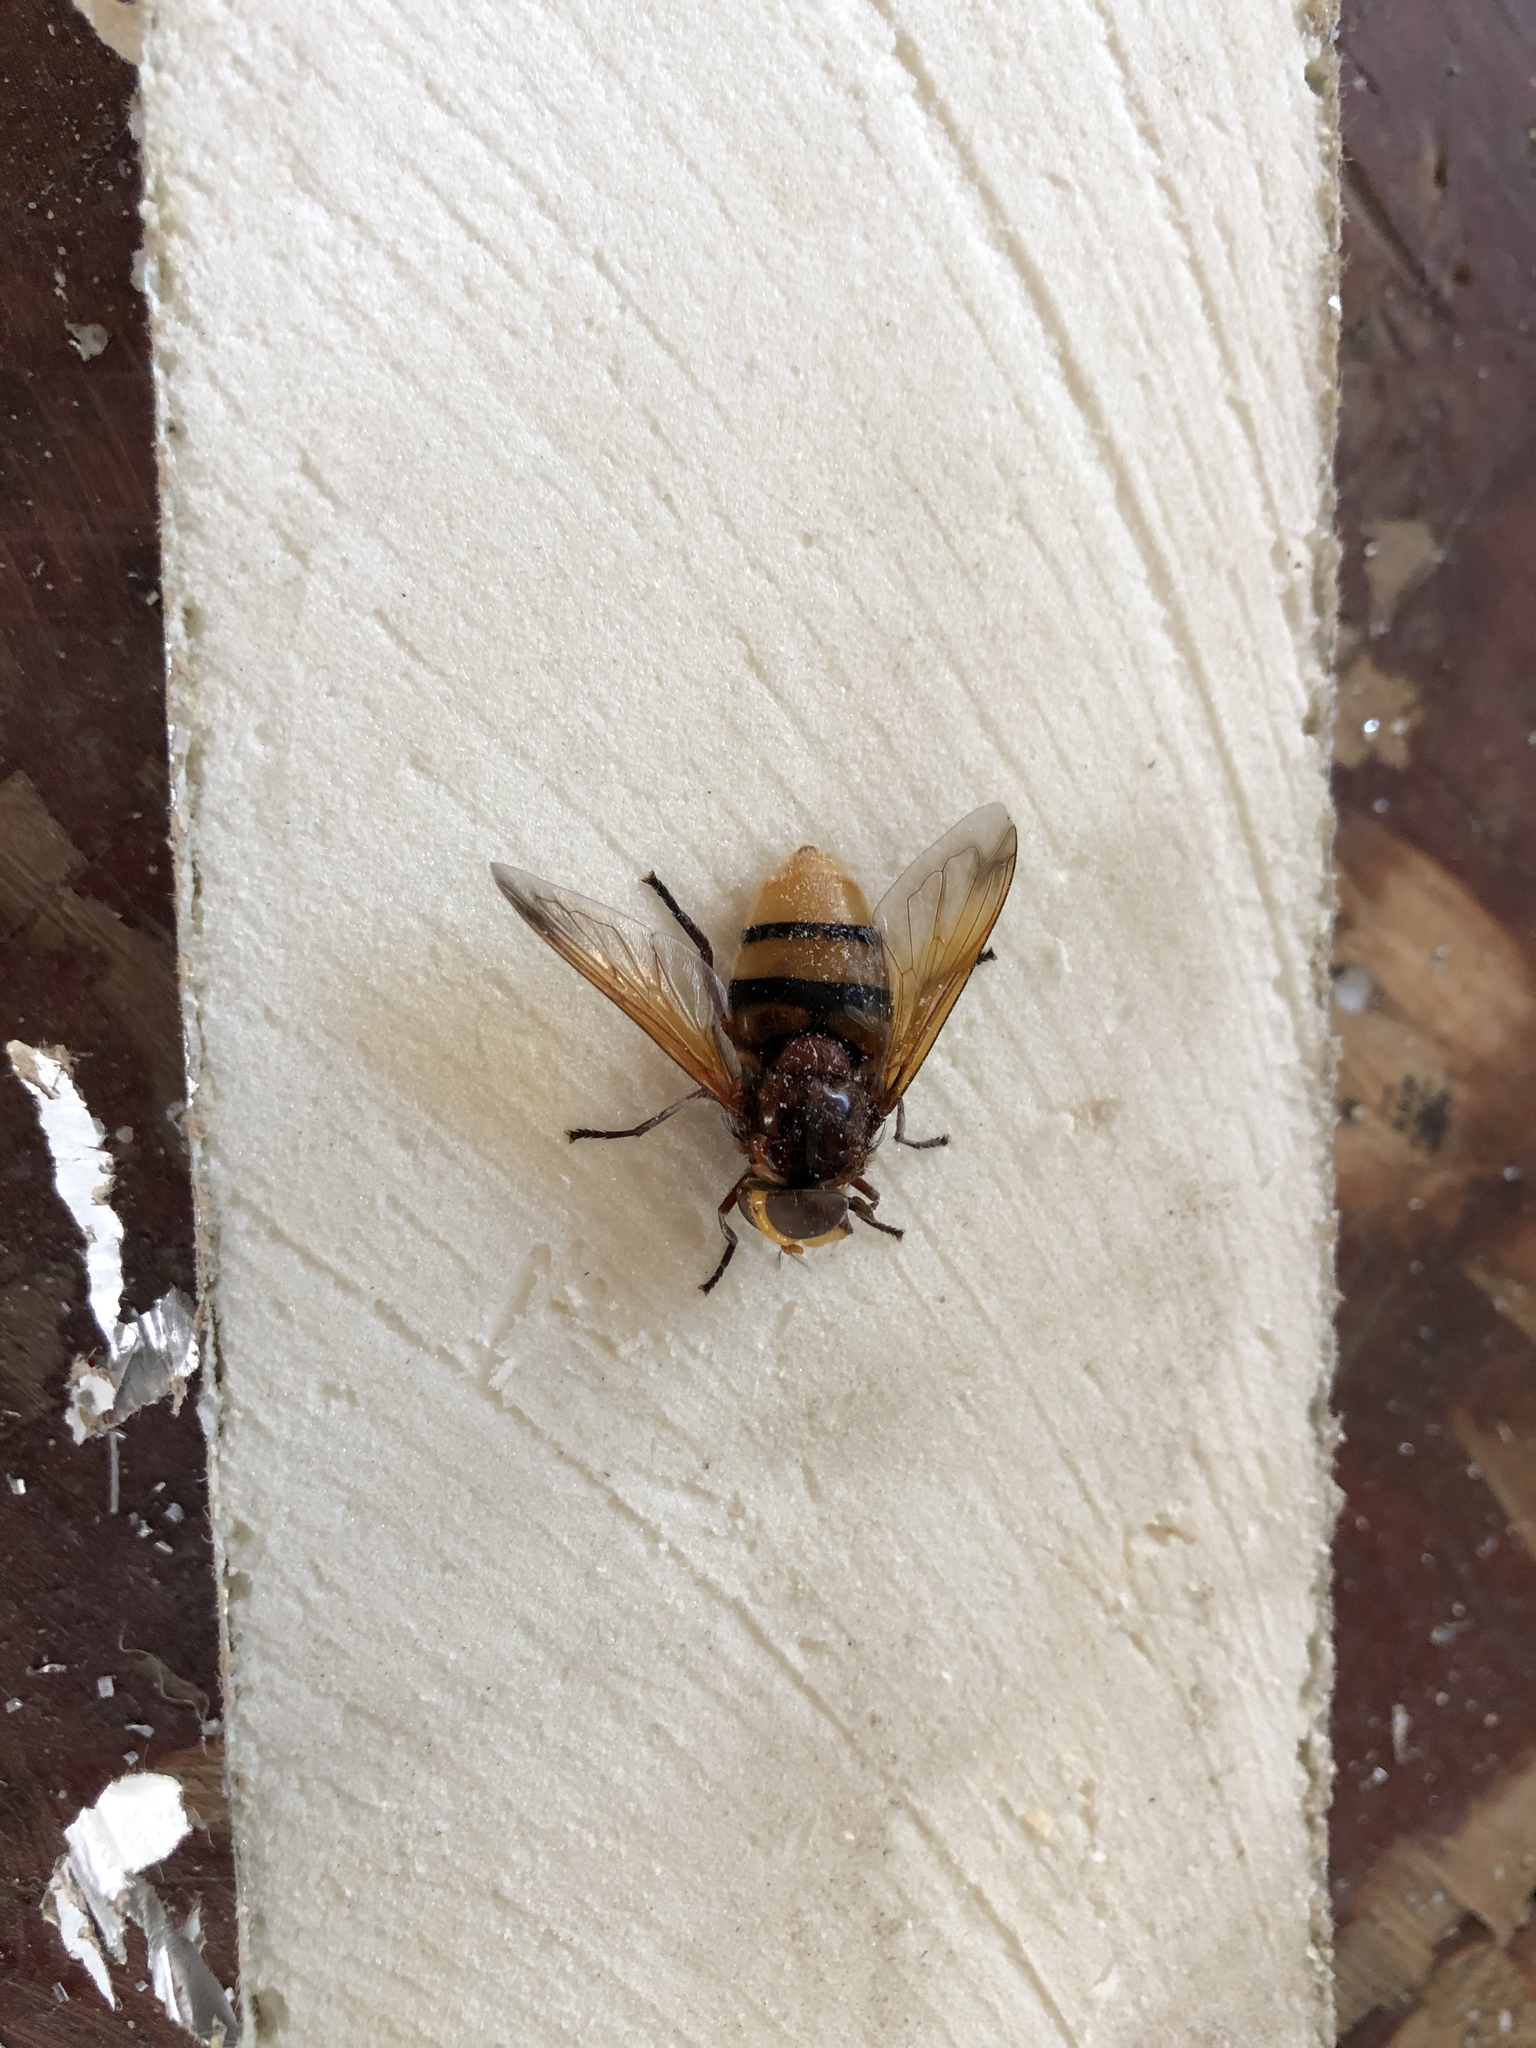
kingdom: Animalia
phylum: Arthropoda
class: Insecta
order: Diptera
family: Syrphidae
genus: Volucella
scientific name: Volucella zonaria
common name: Hornet hoverfly
